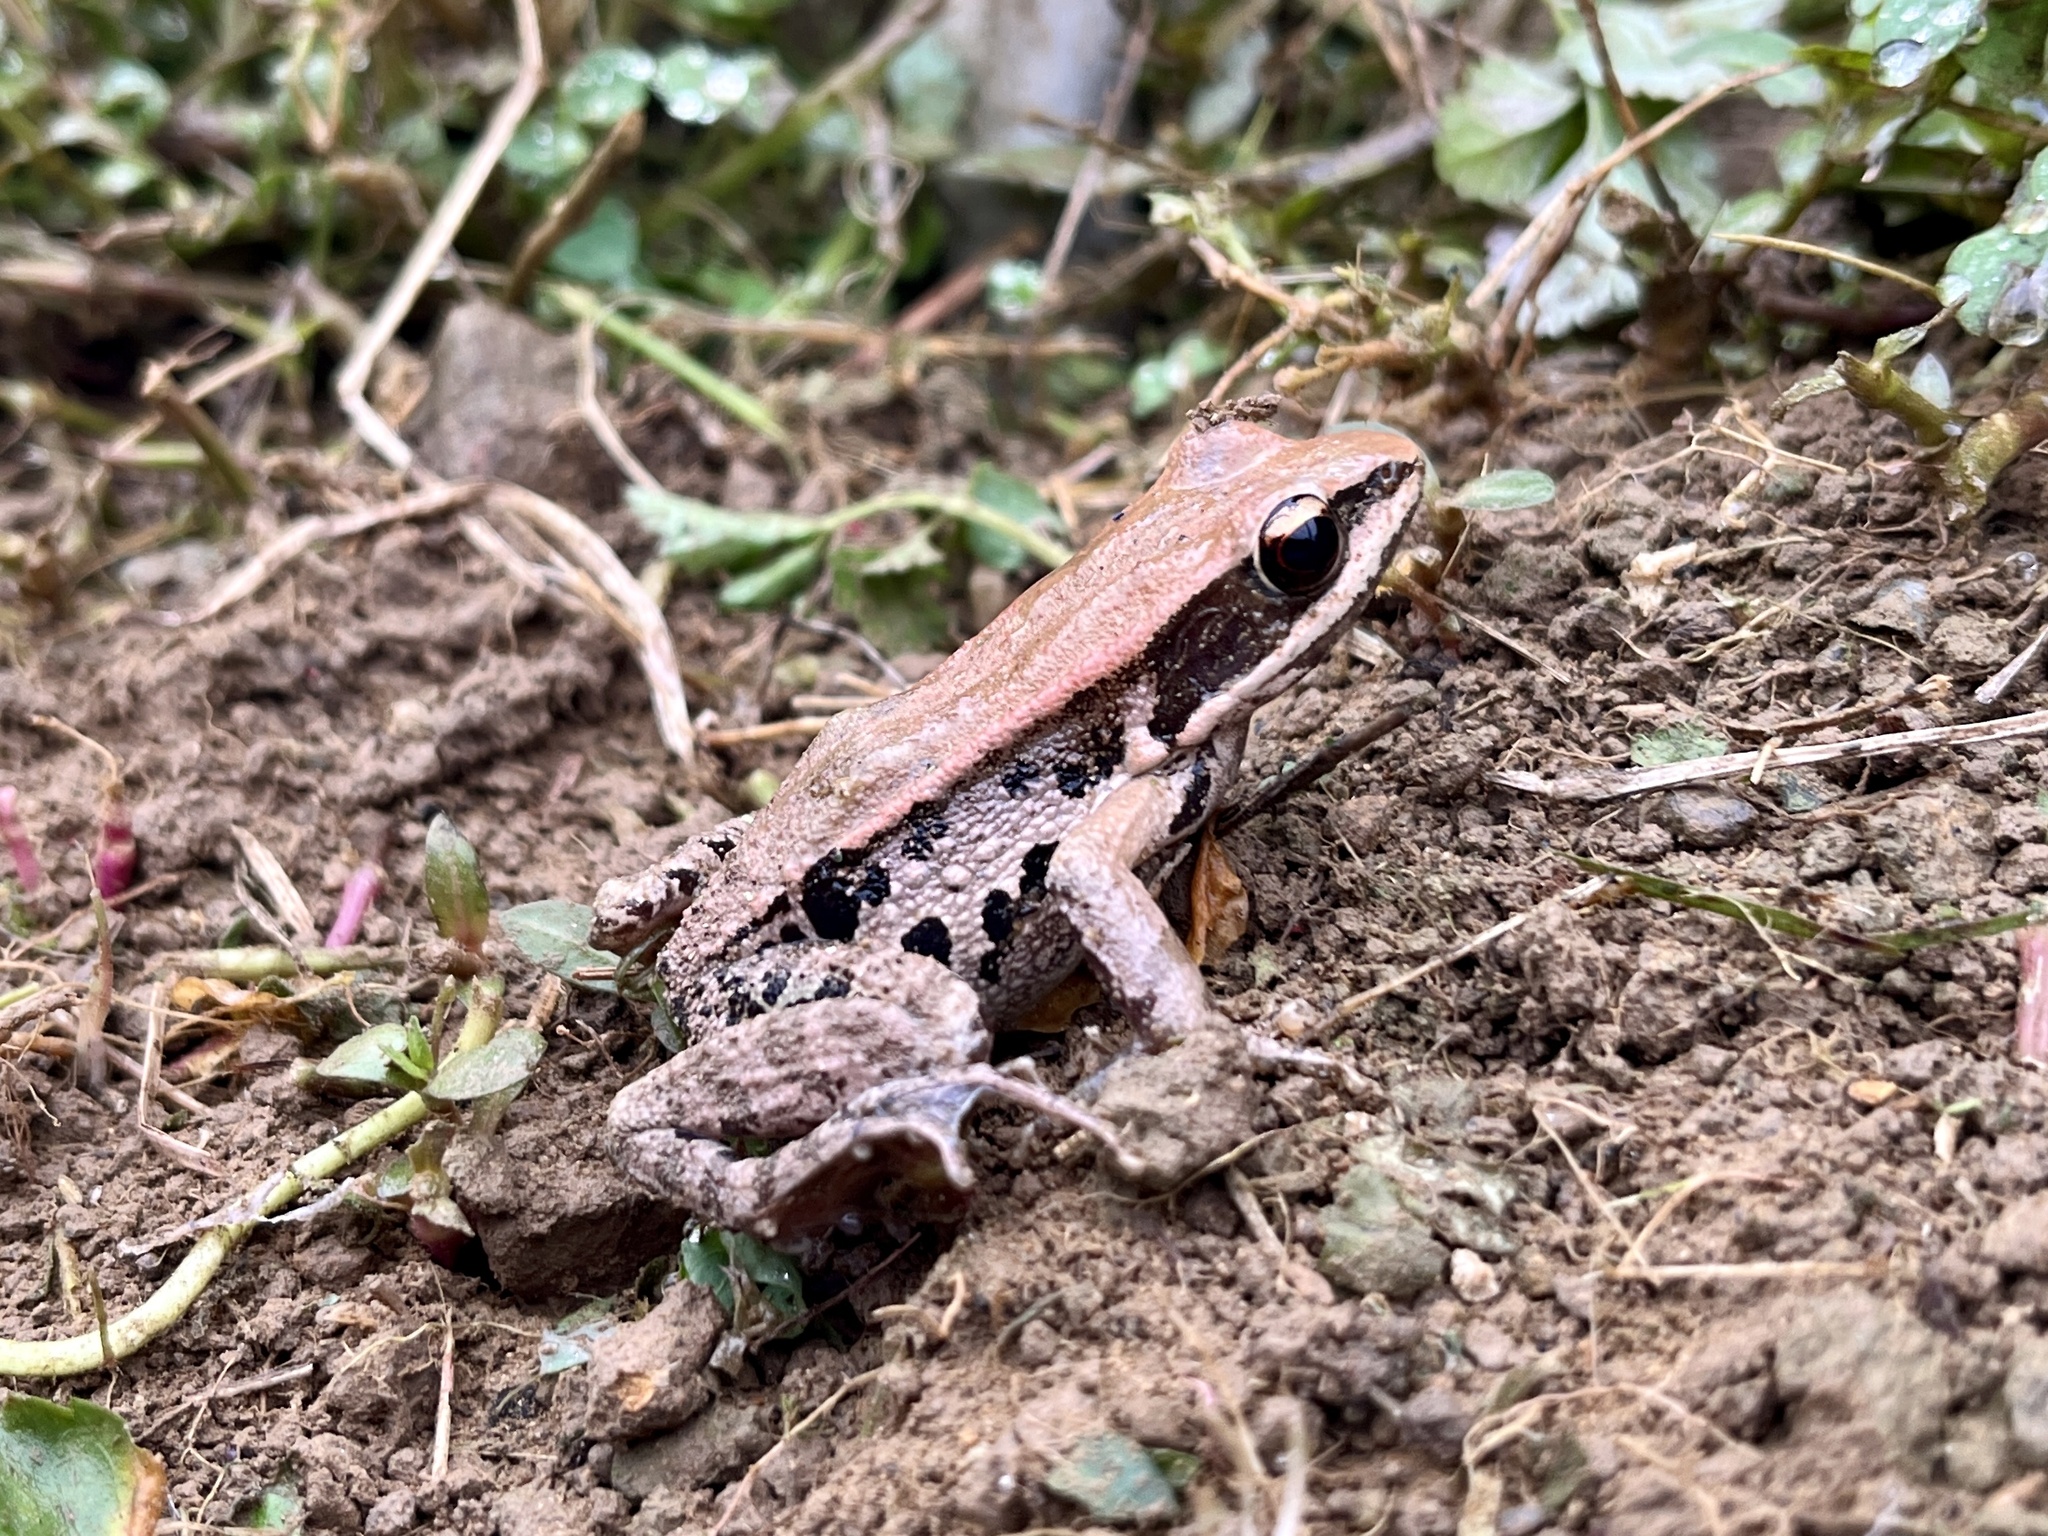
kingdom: Animalia
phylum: Chordata
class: Amphibia
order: Anura
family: Ranidae
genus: Hylarana
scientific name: Hylarana latouchii
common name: Broad-folded frog
